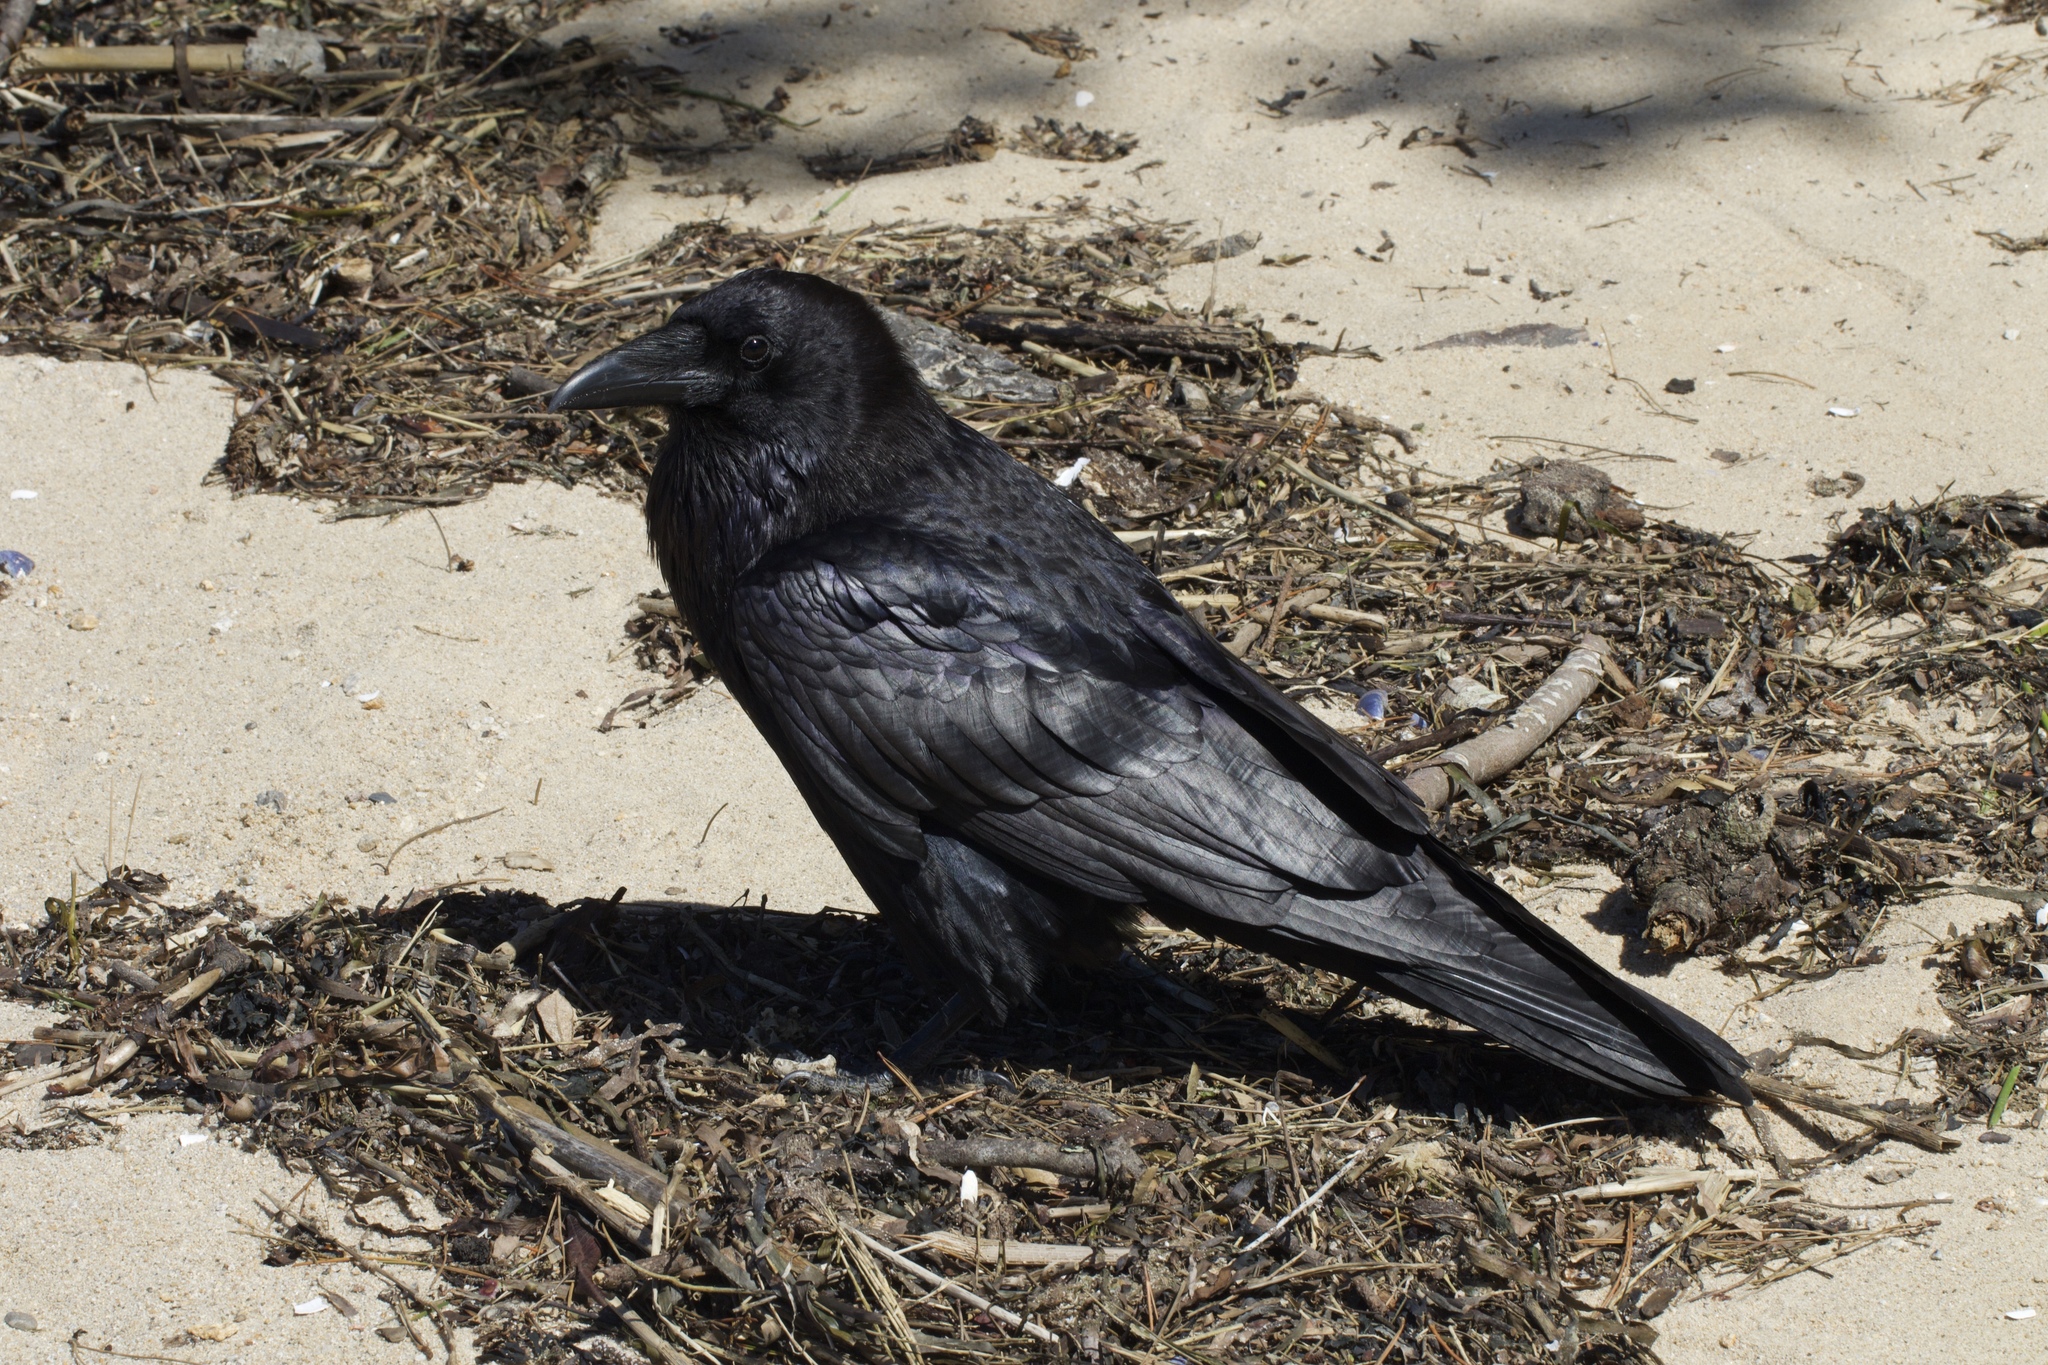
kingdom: Animalia
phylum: Chordata
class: Aves
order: Passeriformes
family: Corvidae
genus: Corvus
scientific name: Corvus corax
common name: Common raven
